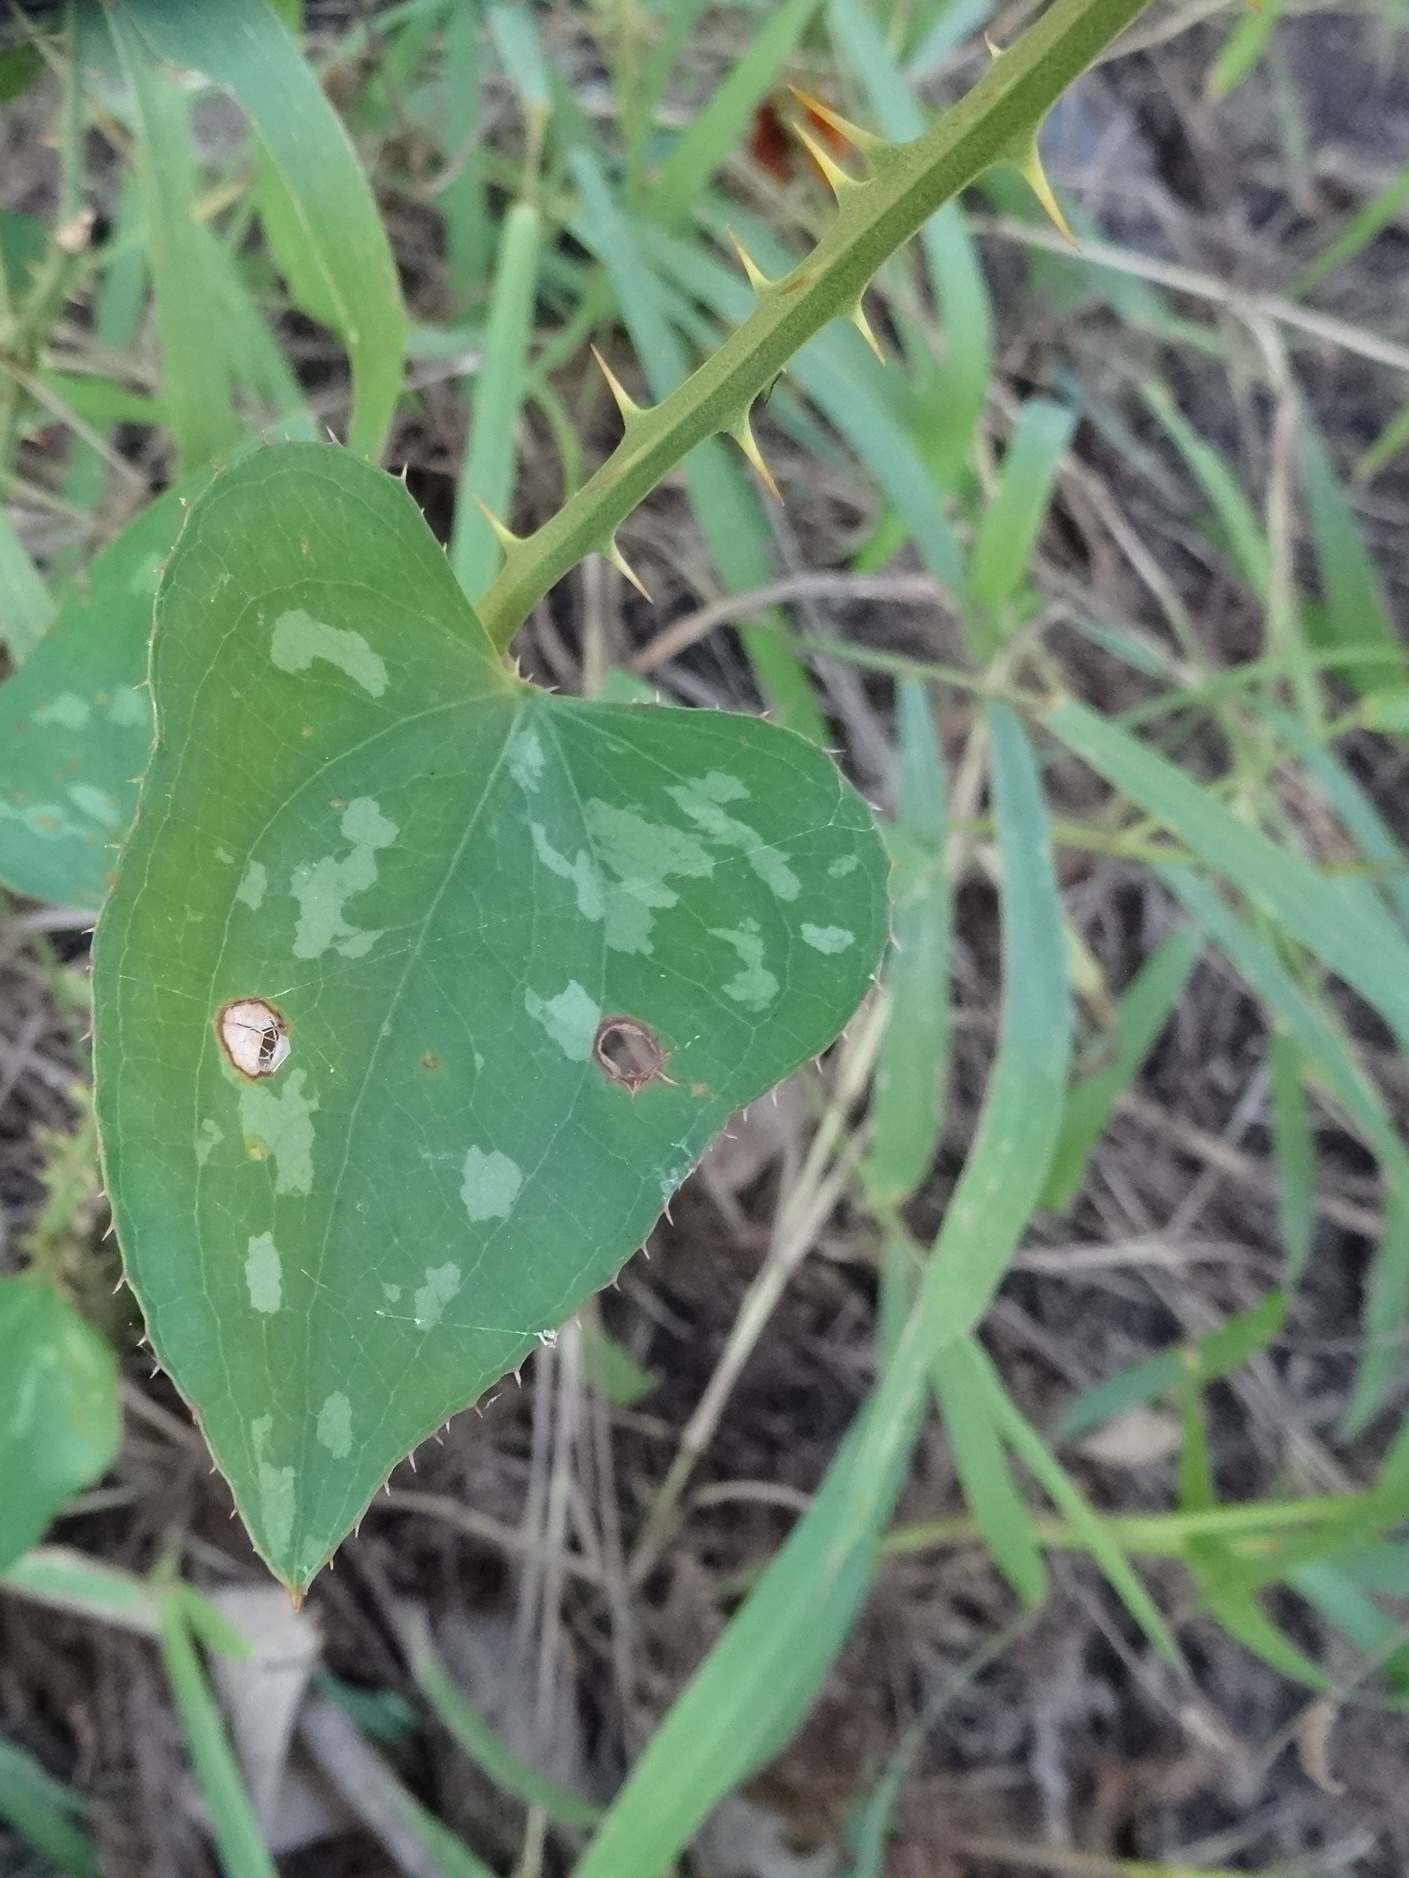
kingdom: Plantae
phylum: Tracheophyta
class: Liliopsida
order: Liliales
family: Smilacaceae
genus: Smilax
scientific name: Smilax bona-nox
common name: Catbrier
